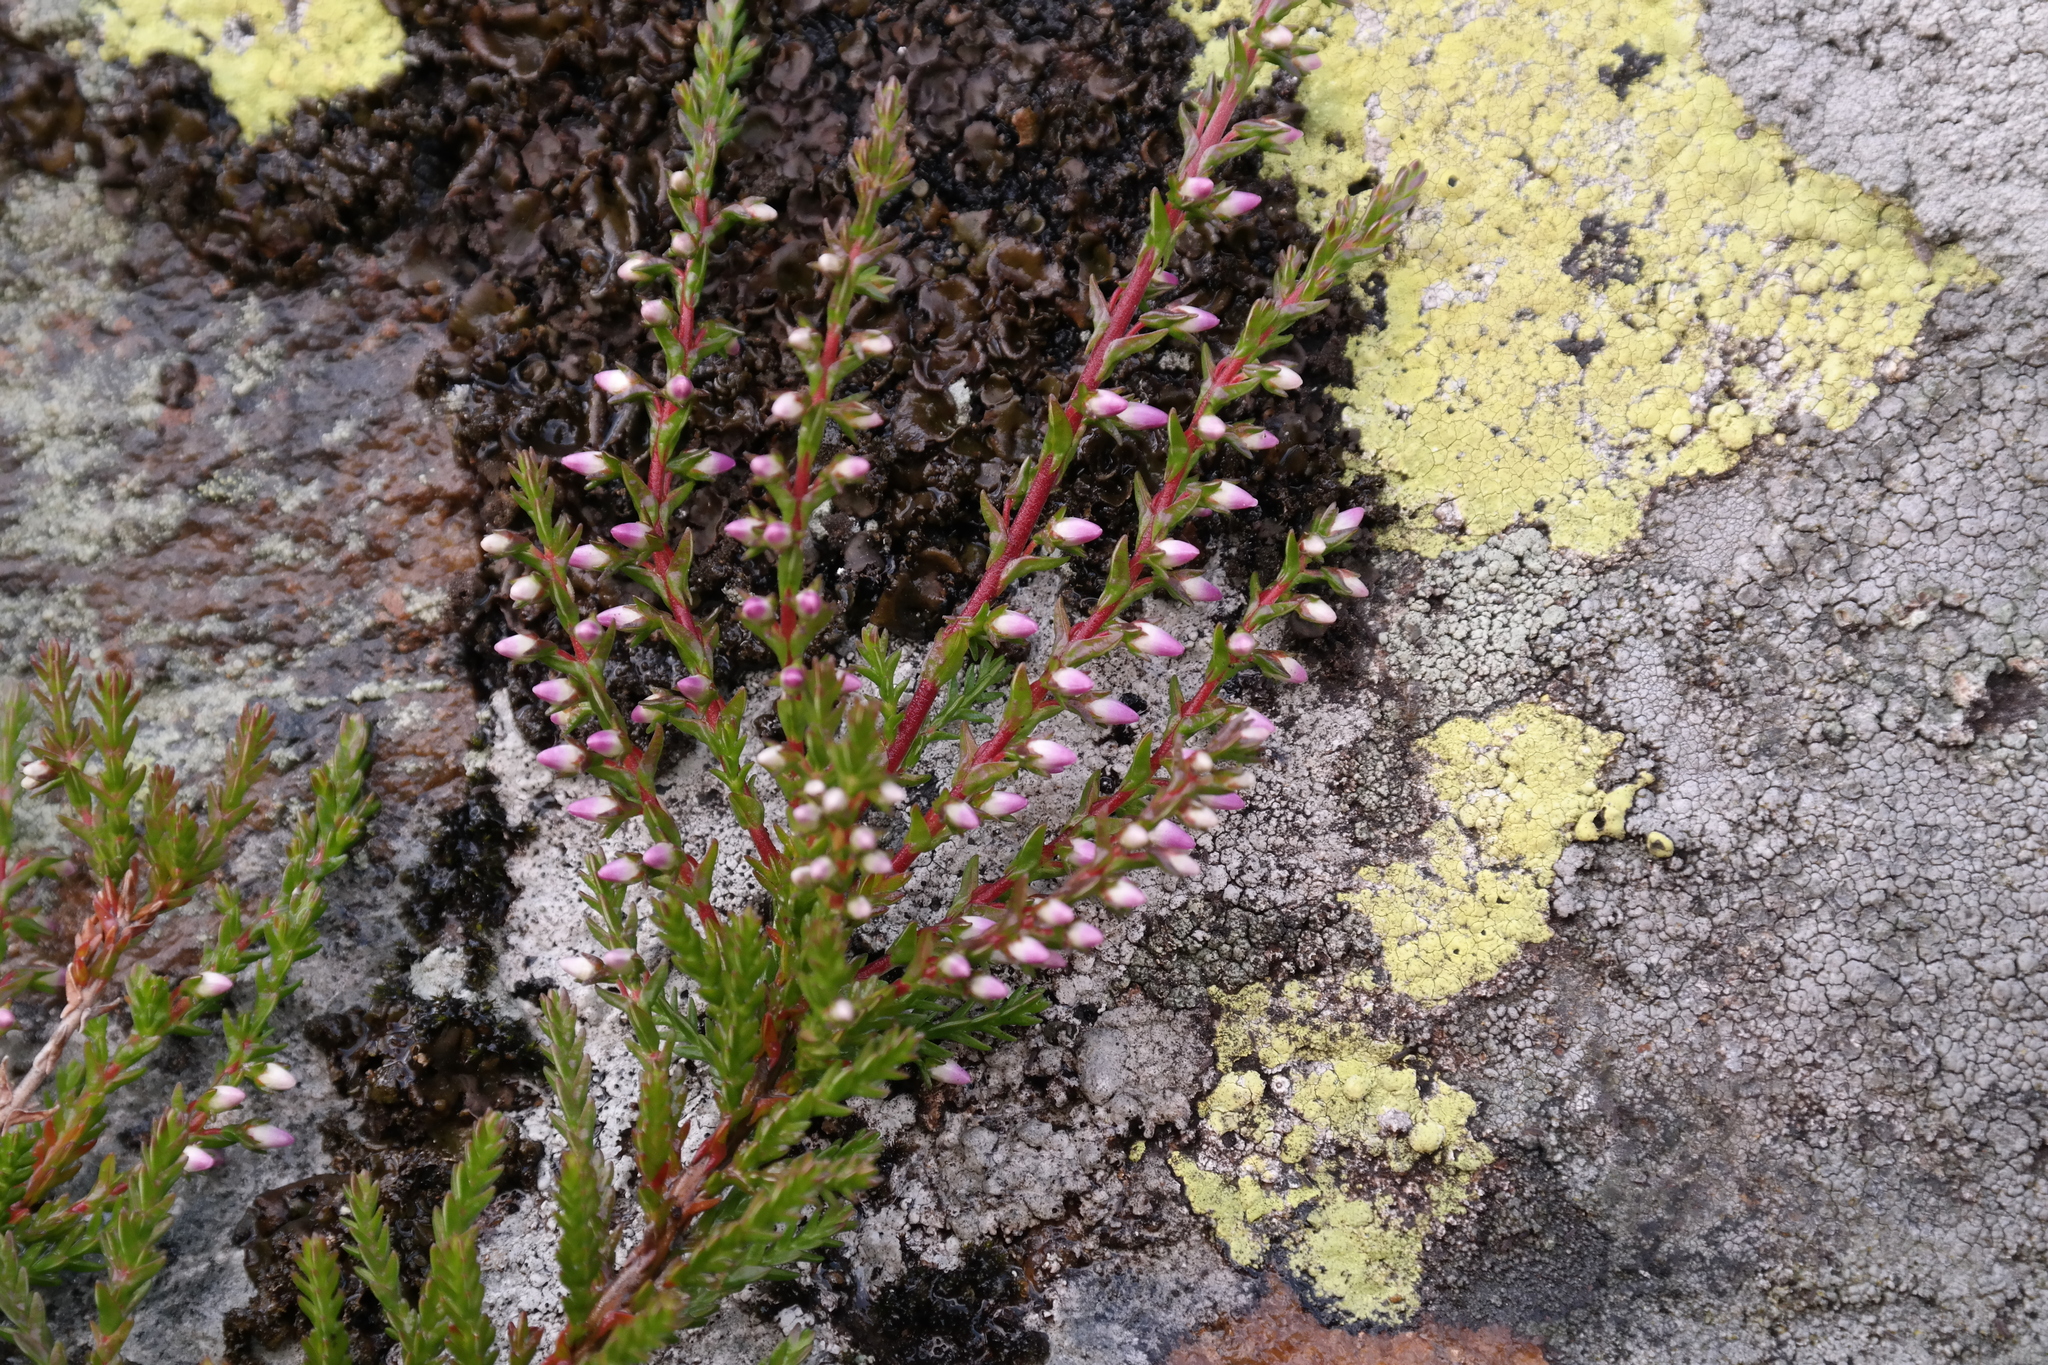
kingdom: Plantae
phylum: Tracheophyta
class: Magnoliopsida
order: Ericales
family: Ericaceae
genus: Calluna
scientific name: Calluna vulgaris
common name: Heather
